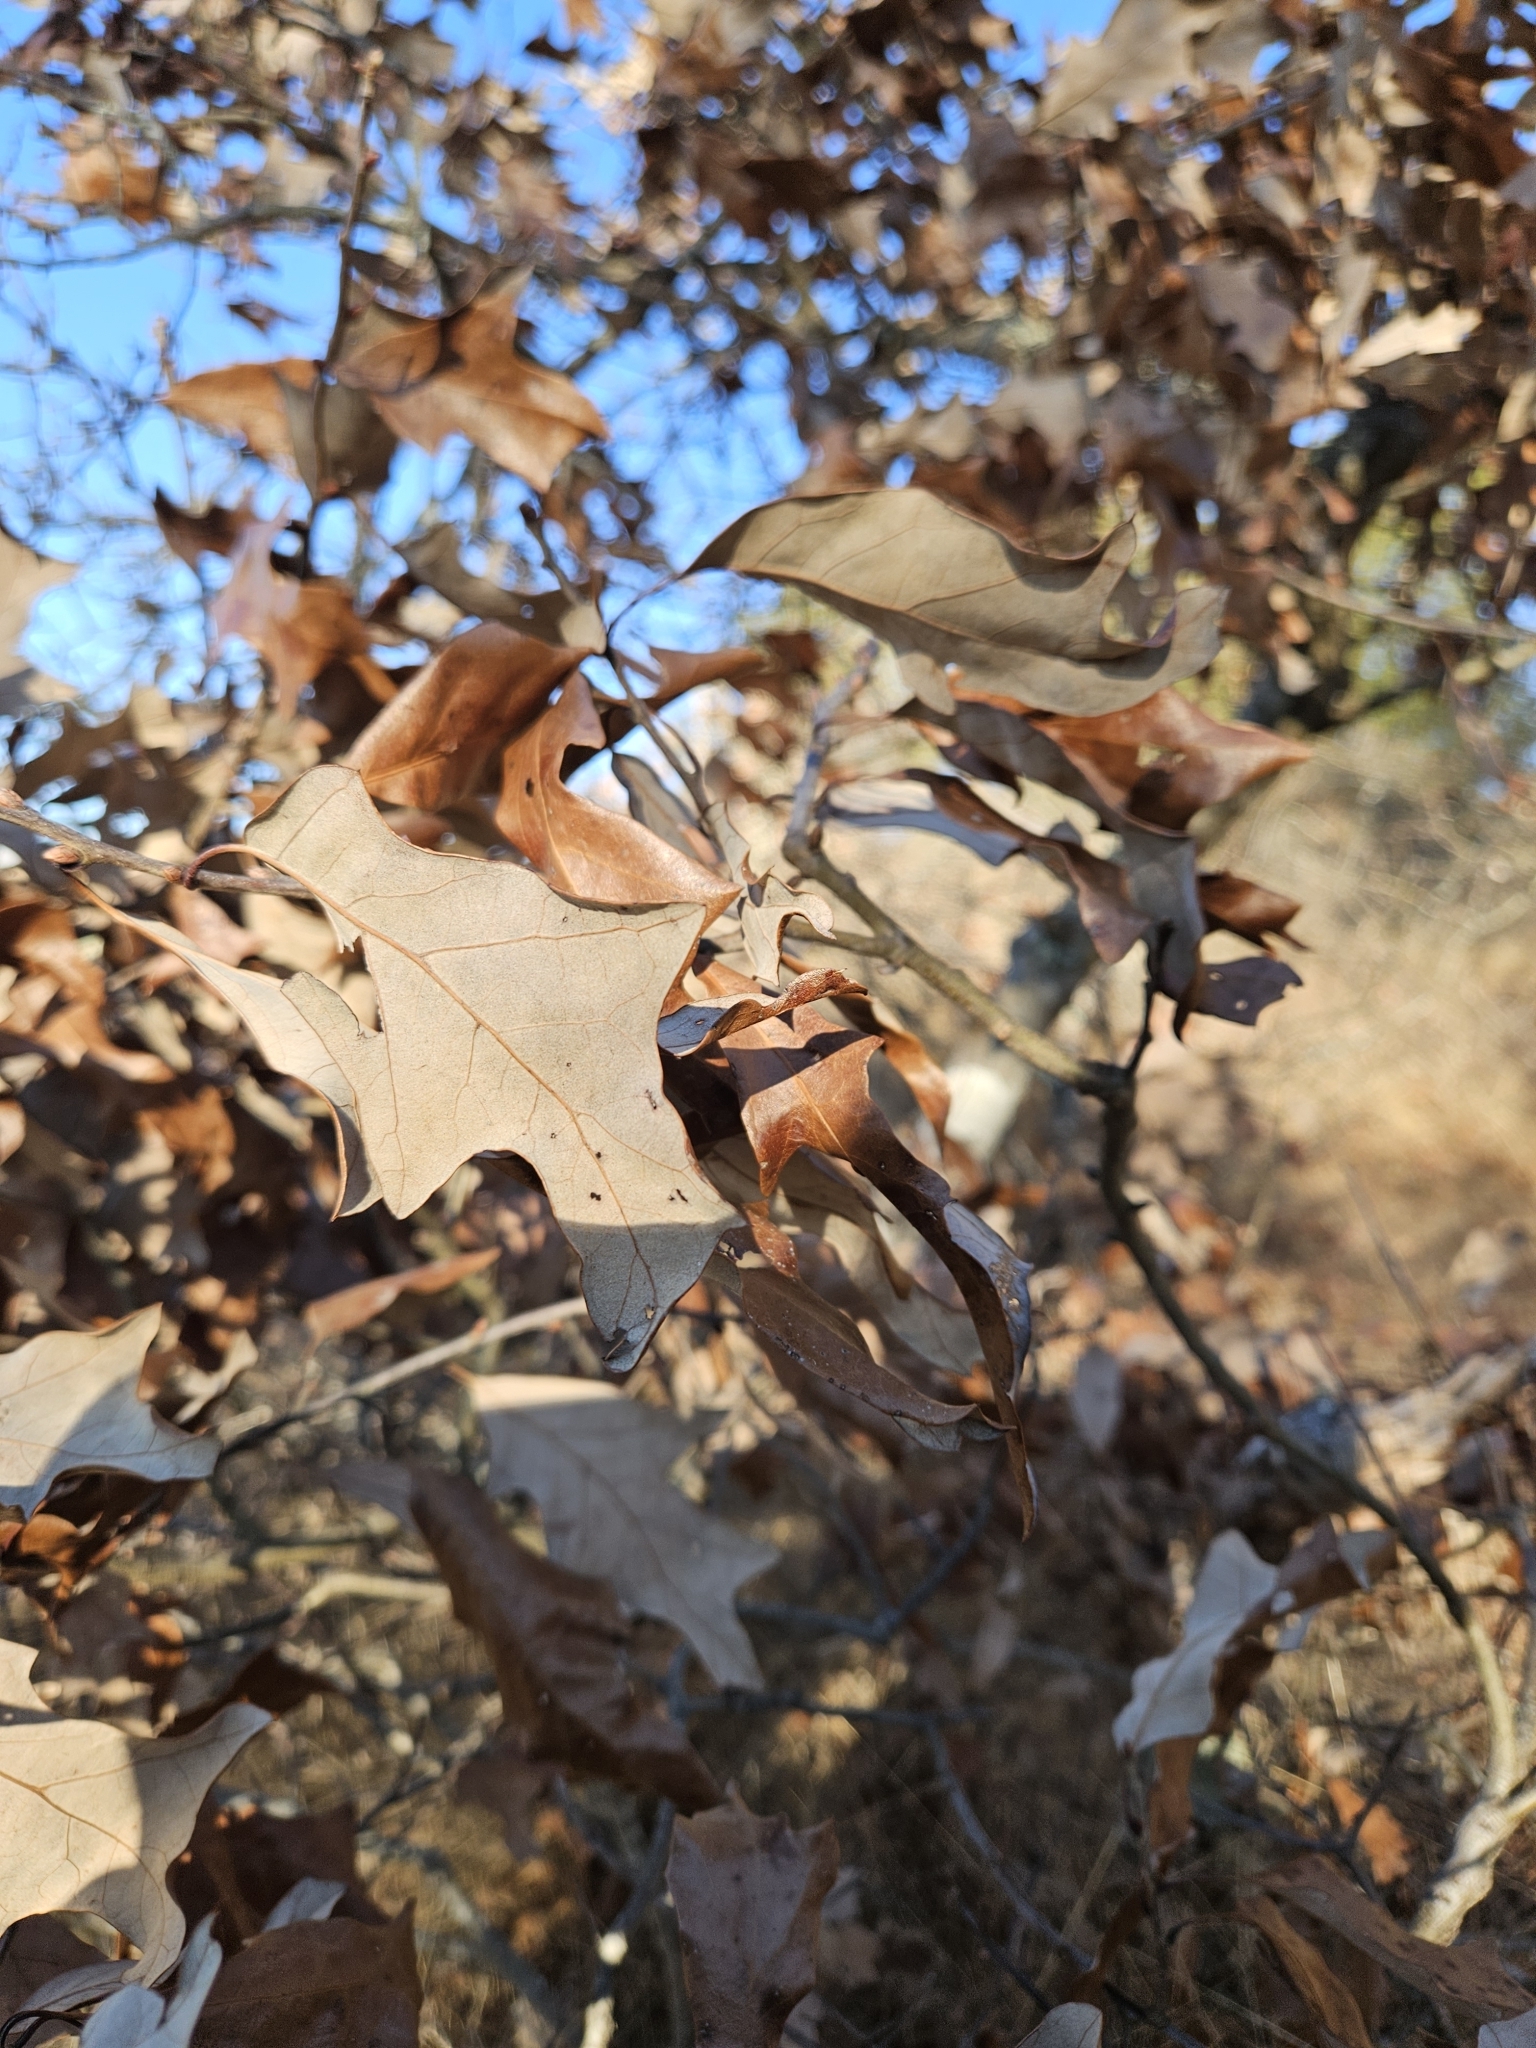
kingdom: Plantae
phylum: Tracheophyta
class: Magnoliopsida
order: Fagales
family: Fagaceae
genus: Quercus
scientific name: Quercus ilicifolia
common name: Bear oak
